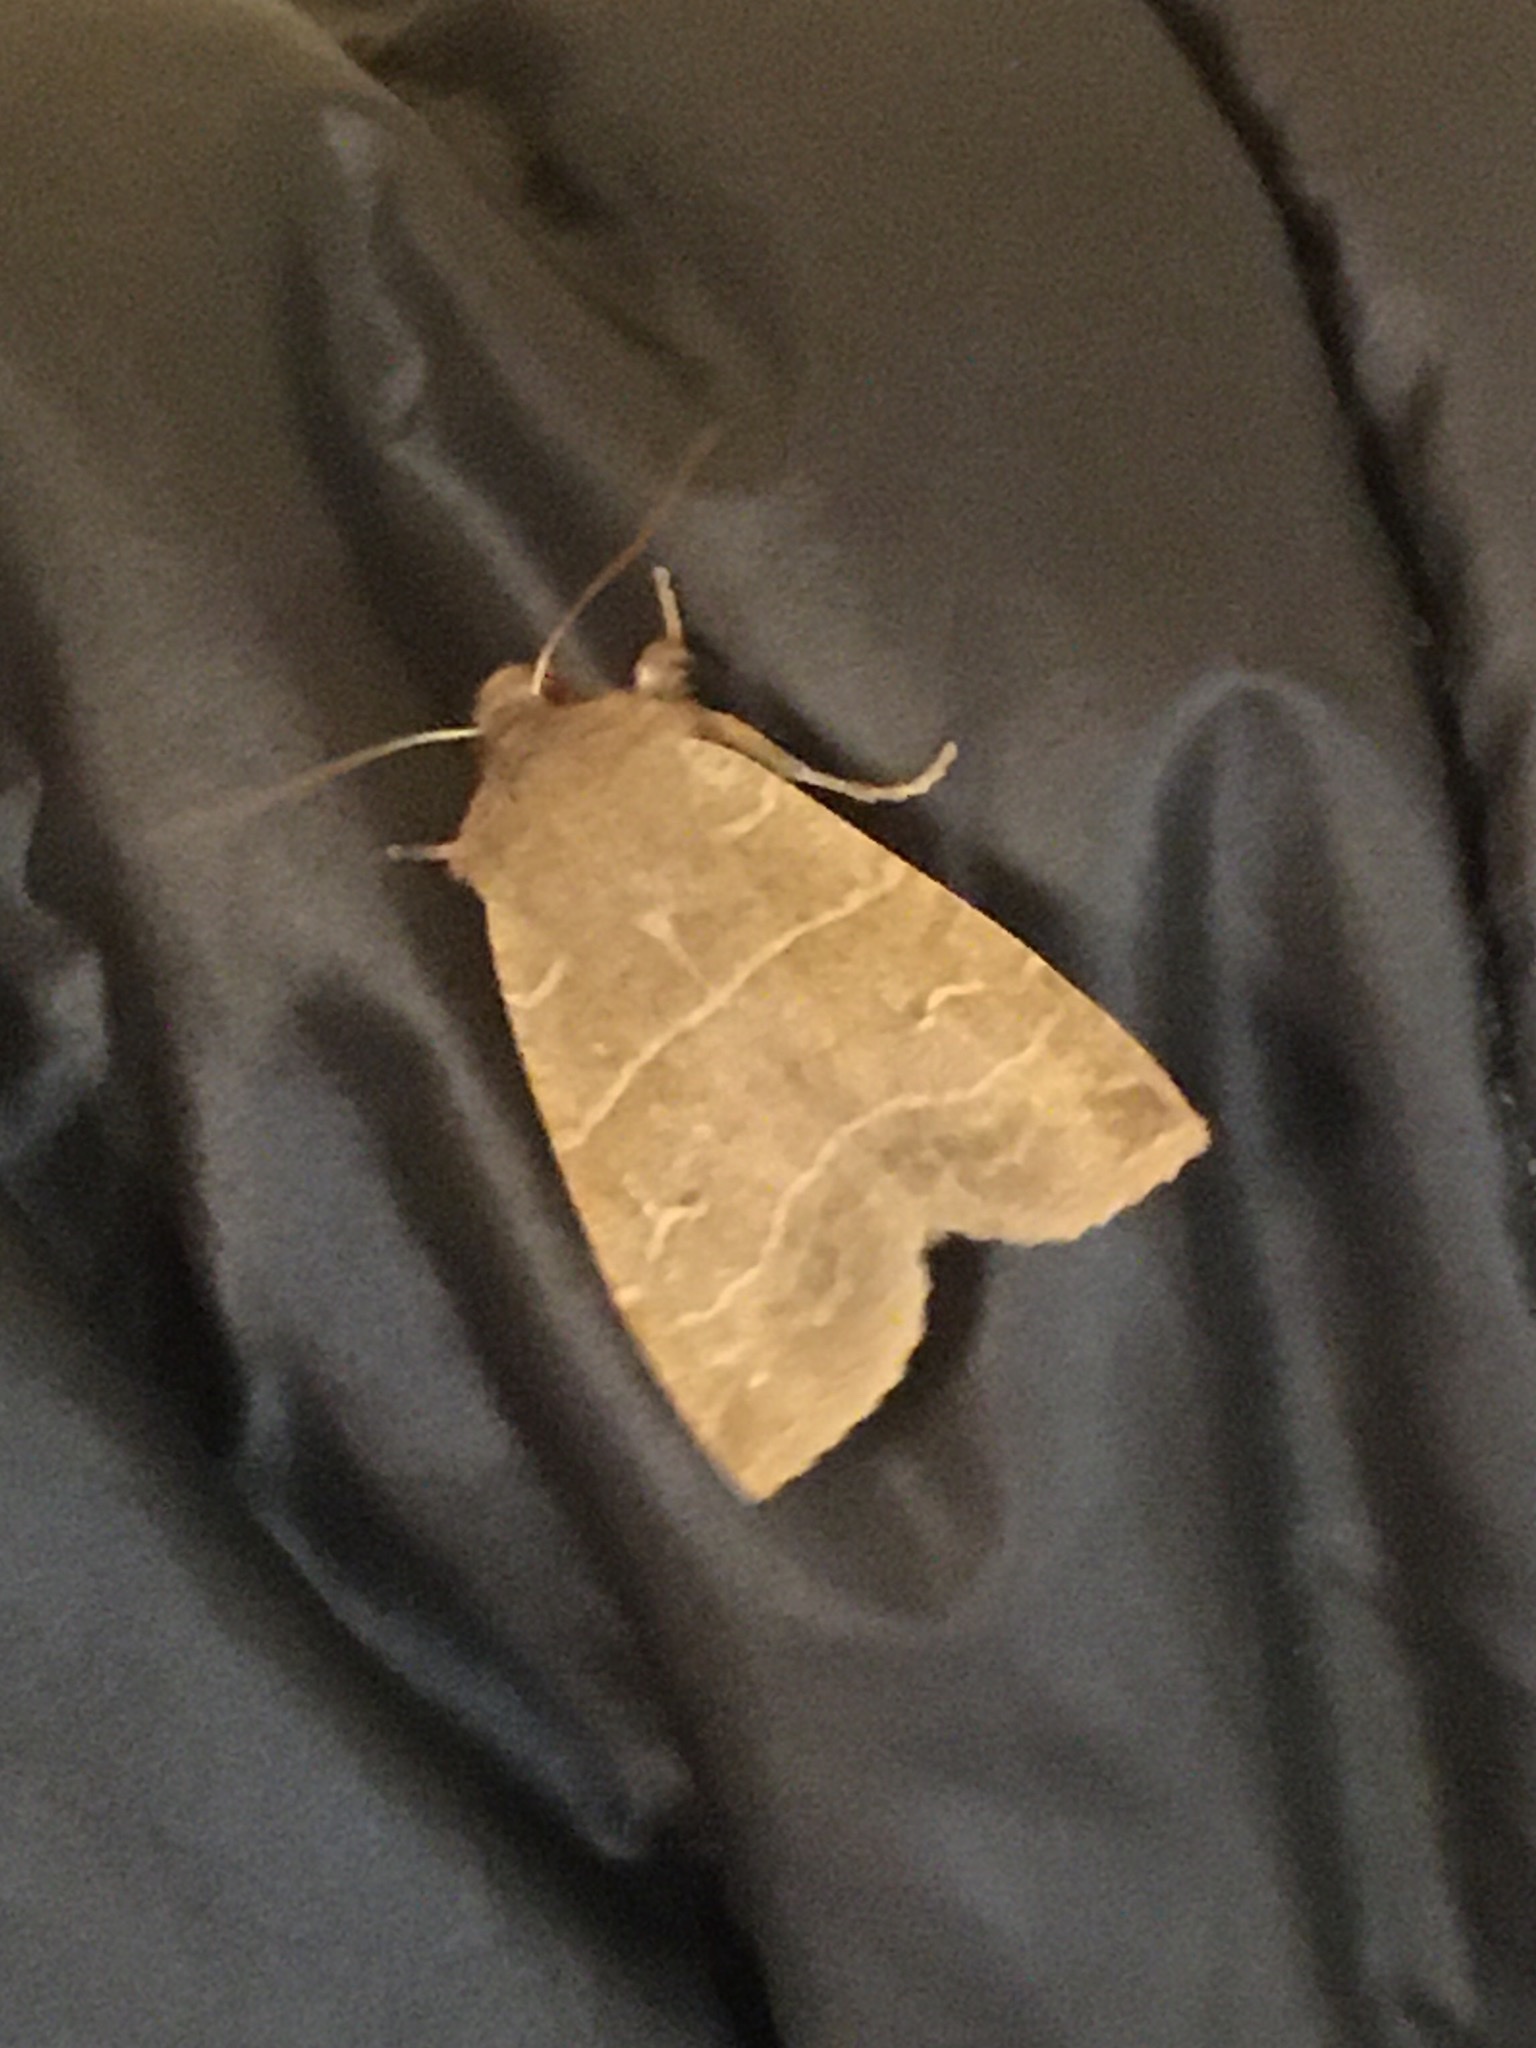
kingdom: Animalia
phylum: Arthropoda
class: Insecta
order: Lepidoptera
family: Noctuidae
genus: Eupsilia
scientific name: Eupsilia morrisoni
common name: Morrison's sallow
